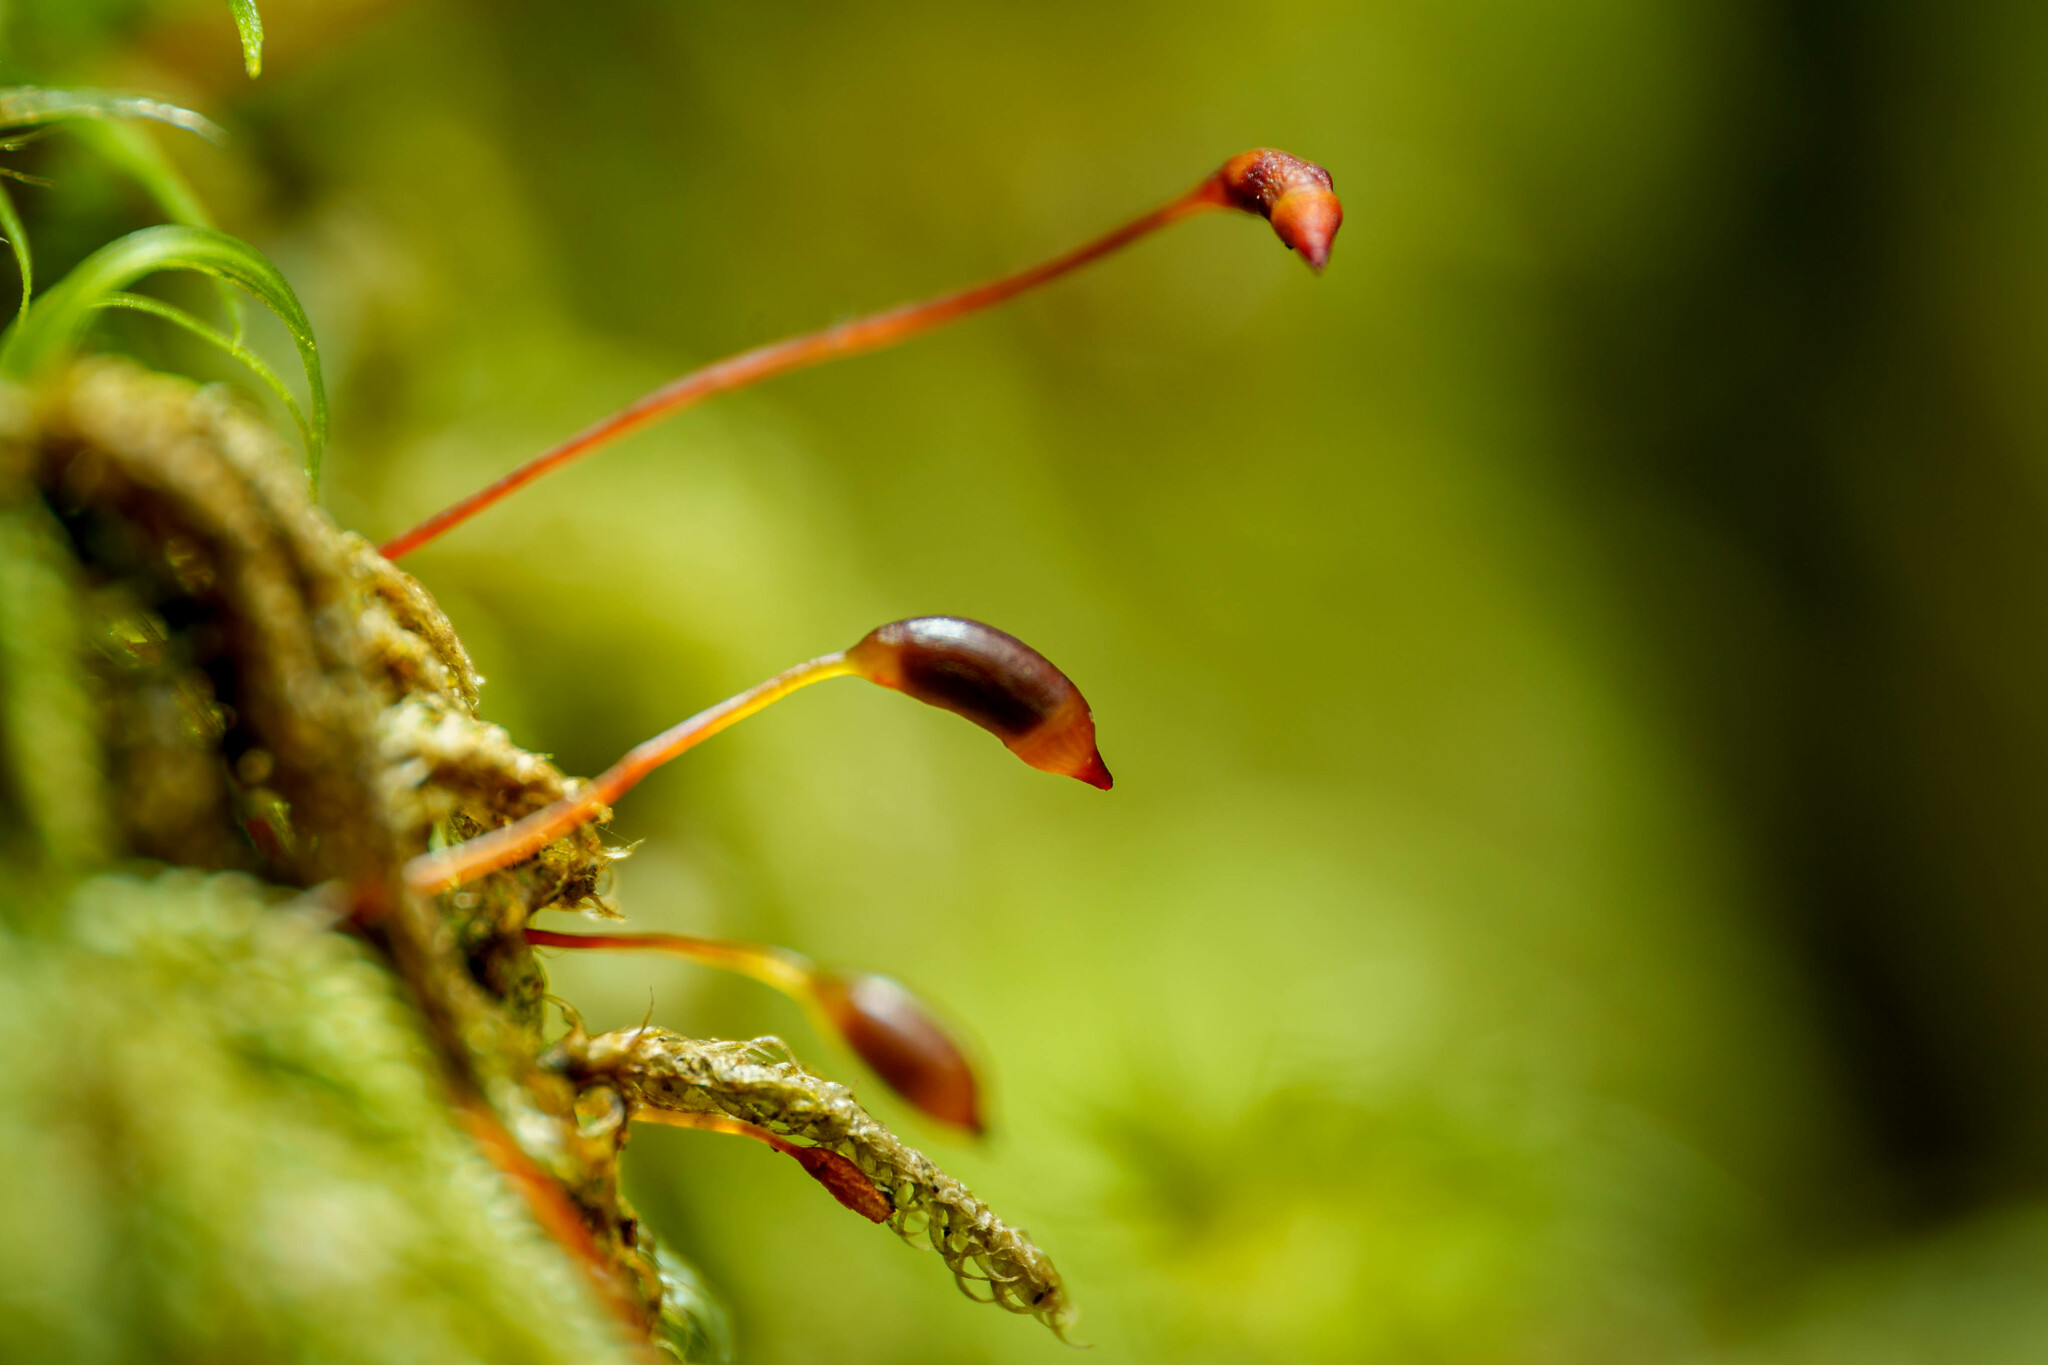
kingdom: Plantae
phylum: Bryophyta
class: Bryopsida
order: Hypnales
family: Pylaisiadelphaceae
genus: Trochophyllohypnum
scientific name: Trochophyllohypnum circinale
